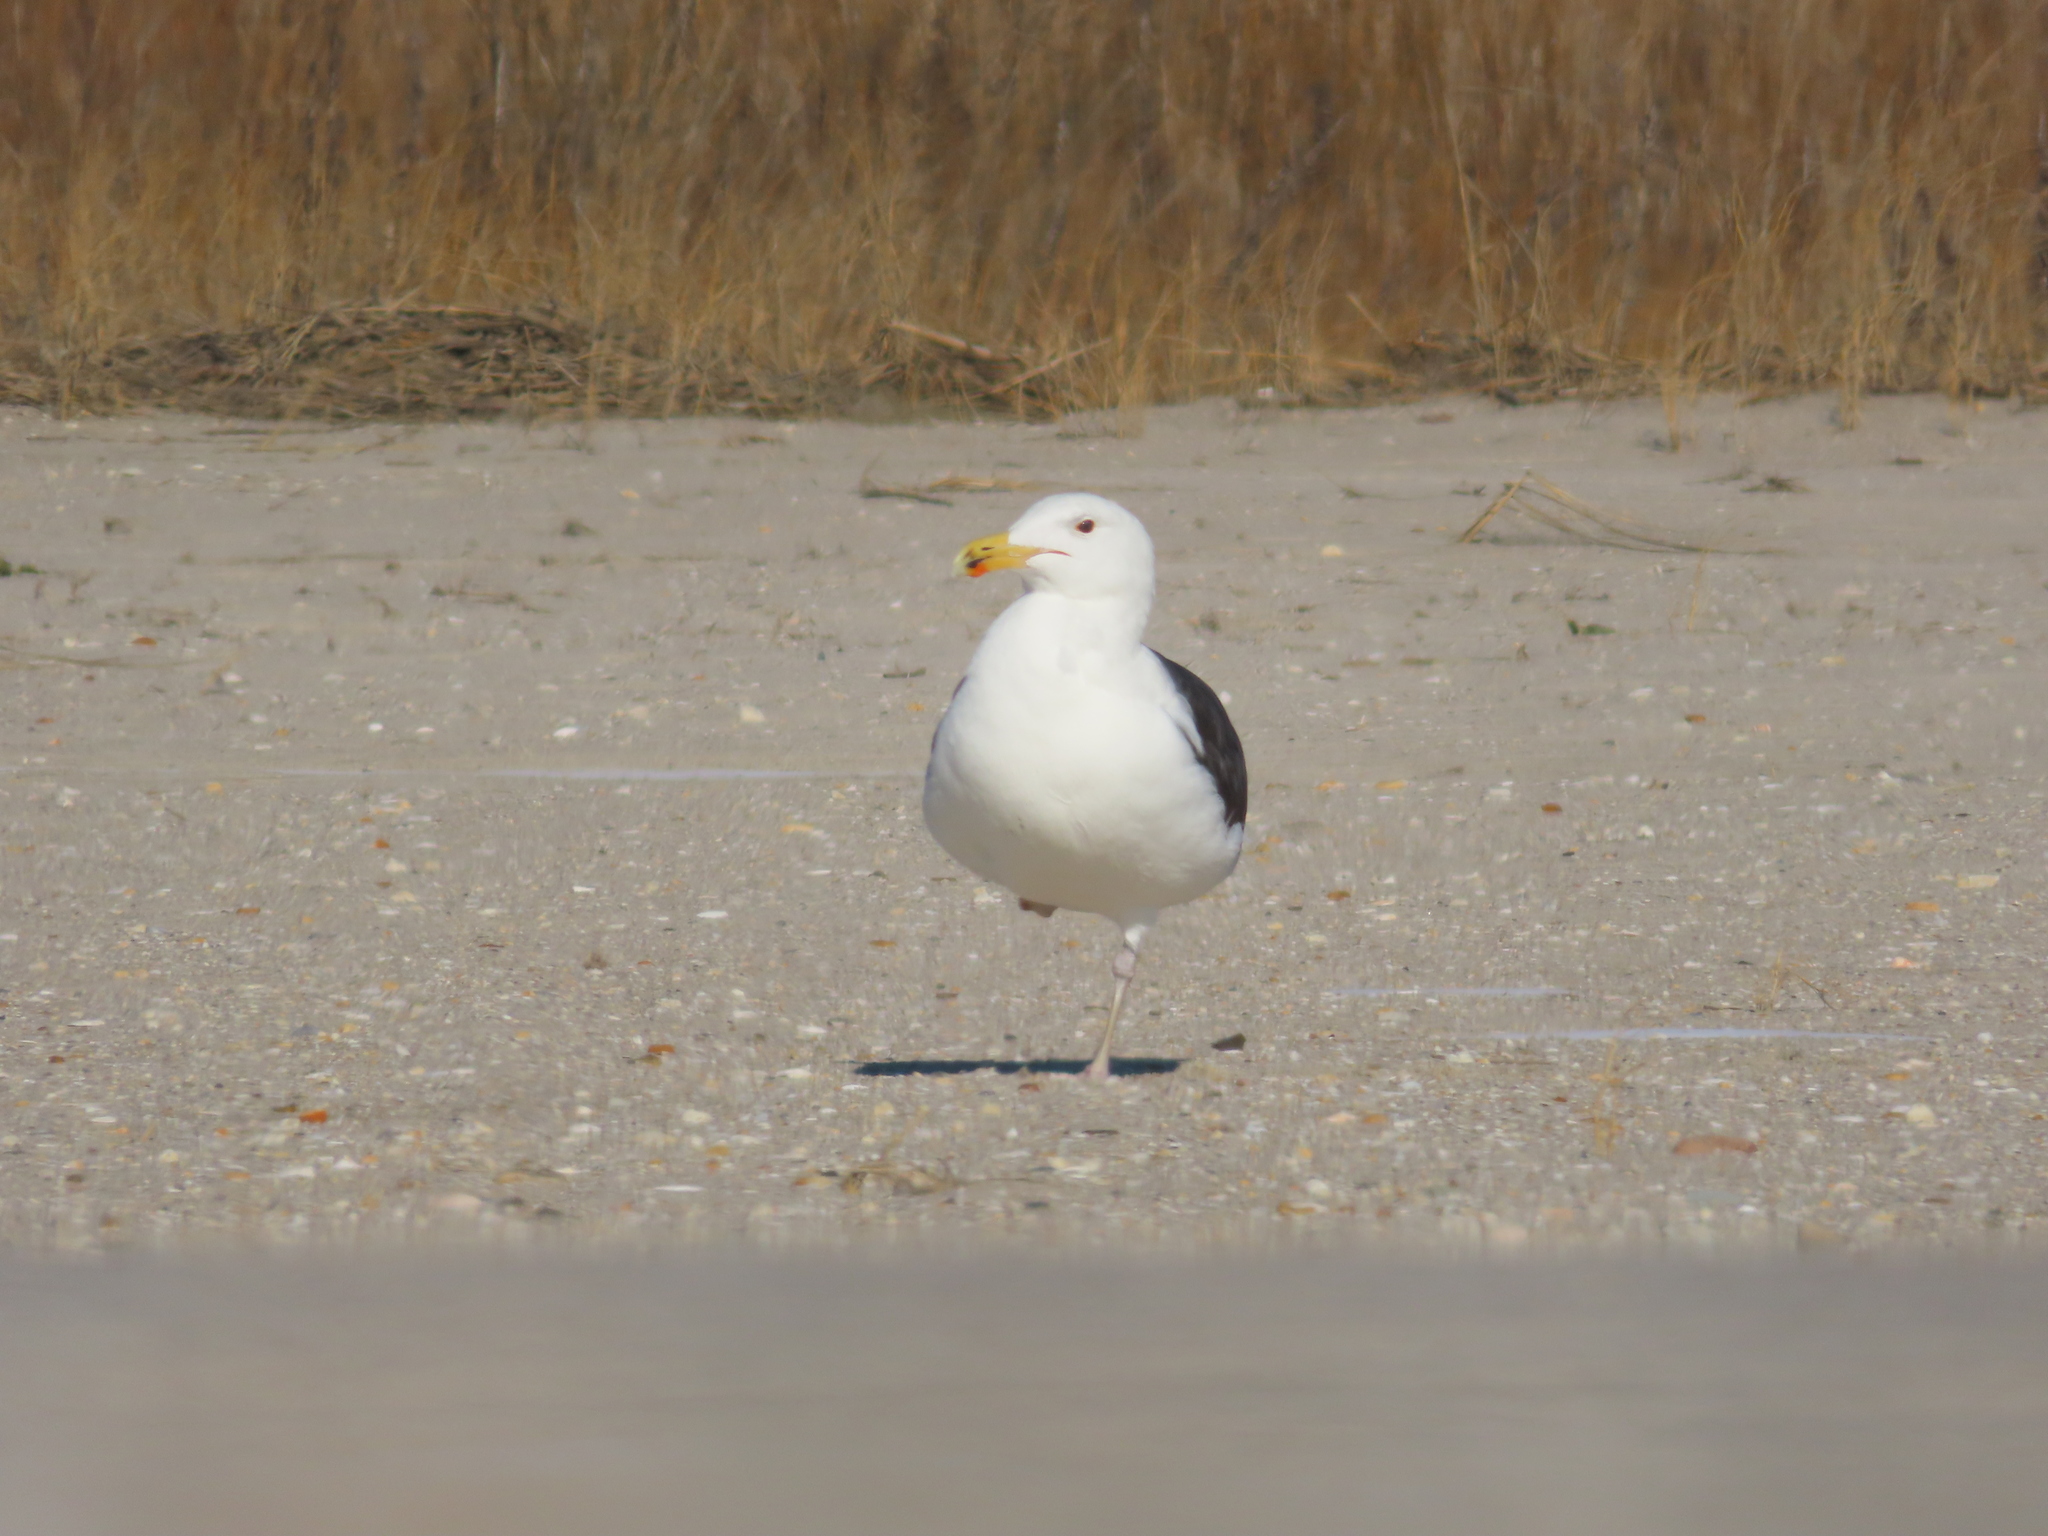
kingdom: Animalia
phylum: Chordata
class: Aves
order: Charadriiformes
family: Laridae
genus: Larus
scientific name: Larus marinus
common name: Great black-backed gull
